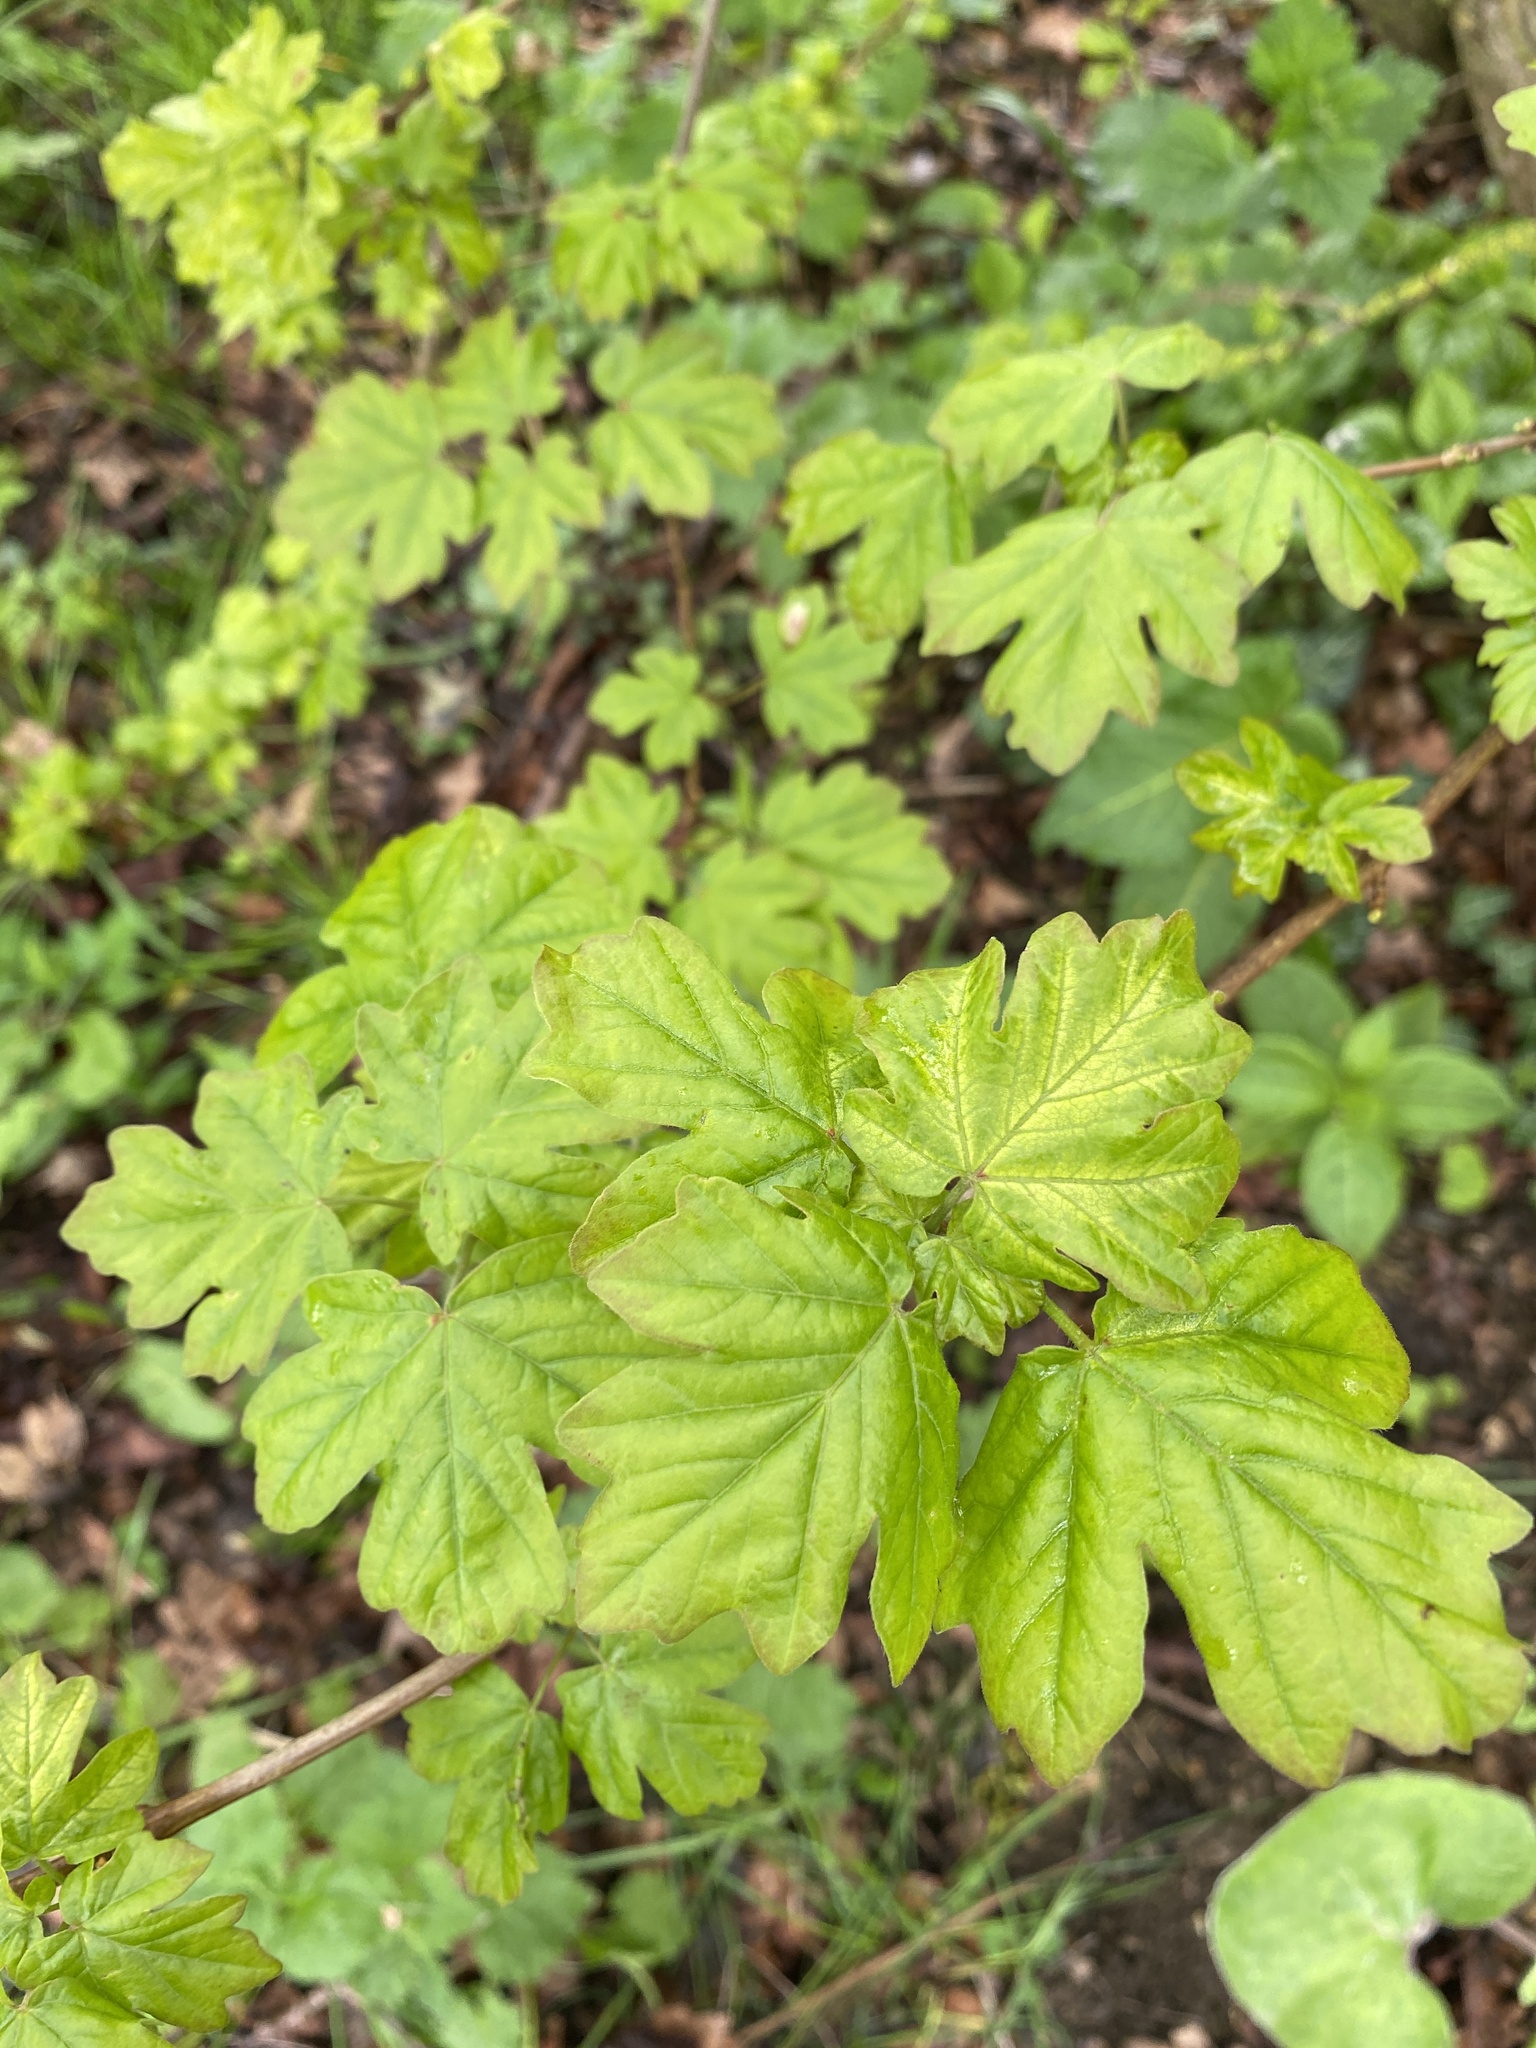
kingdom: Plantae
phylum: Tracheophyta
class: Magnoliopsida
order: Sapindales
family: Sapindaceae
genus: Acer
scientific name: Acer campestre
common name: Field maple
